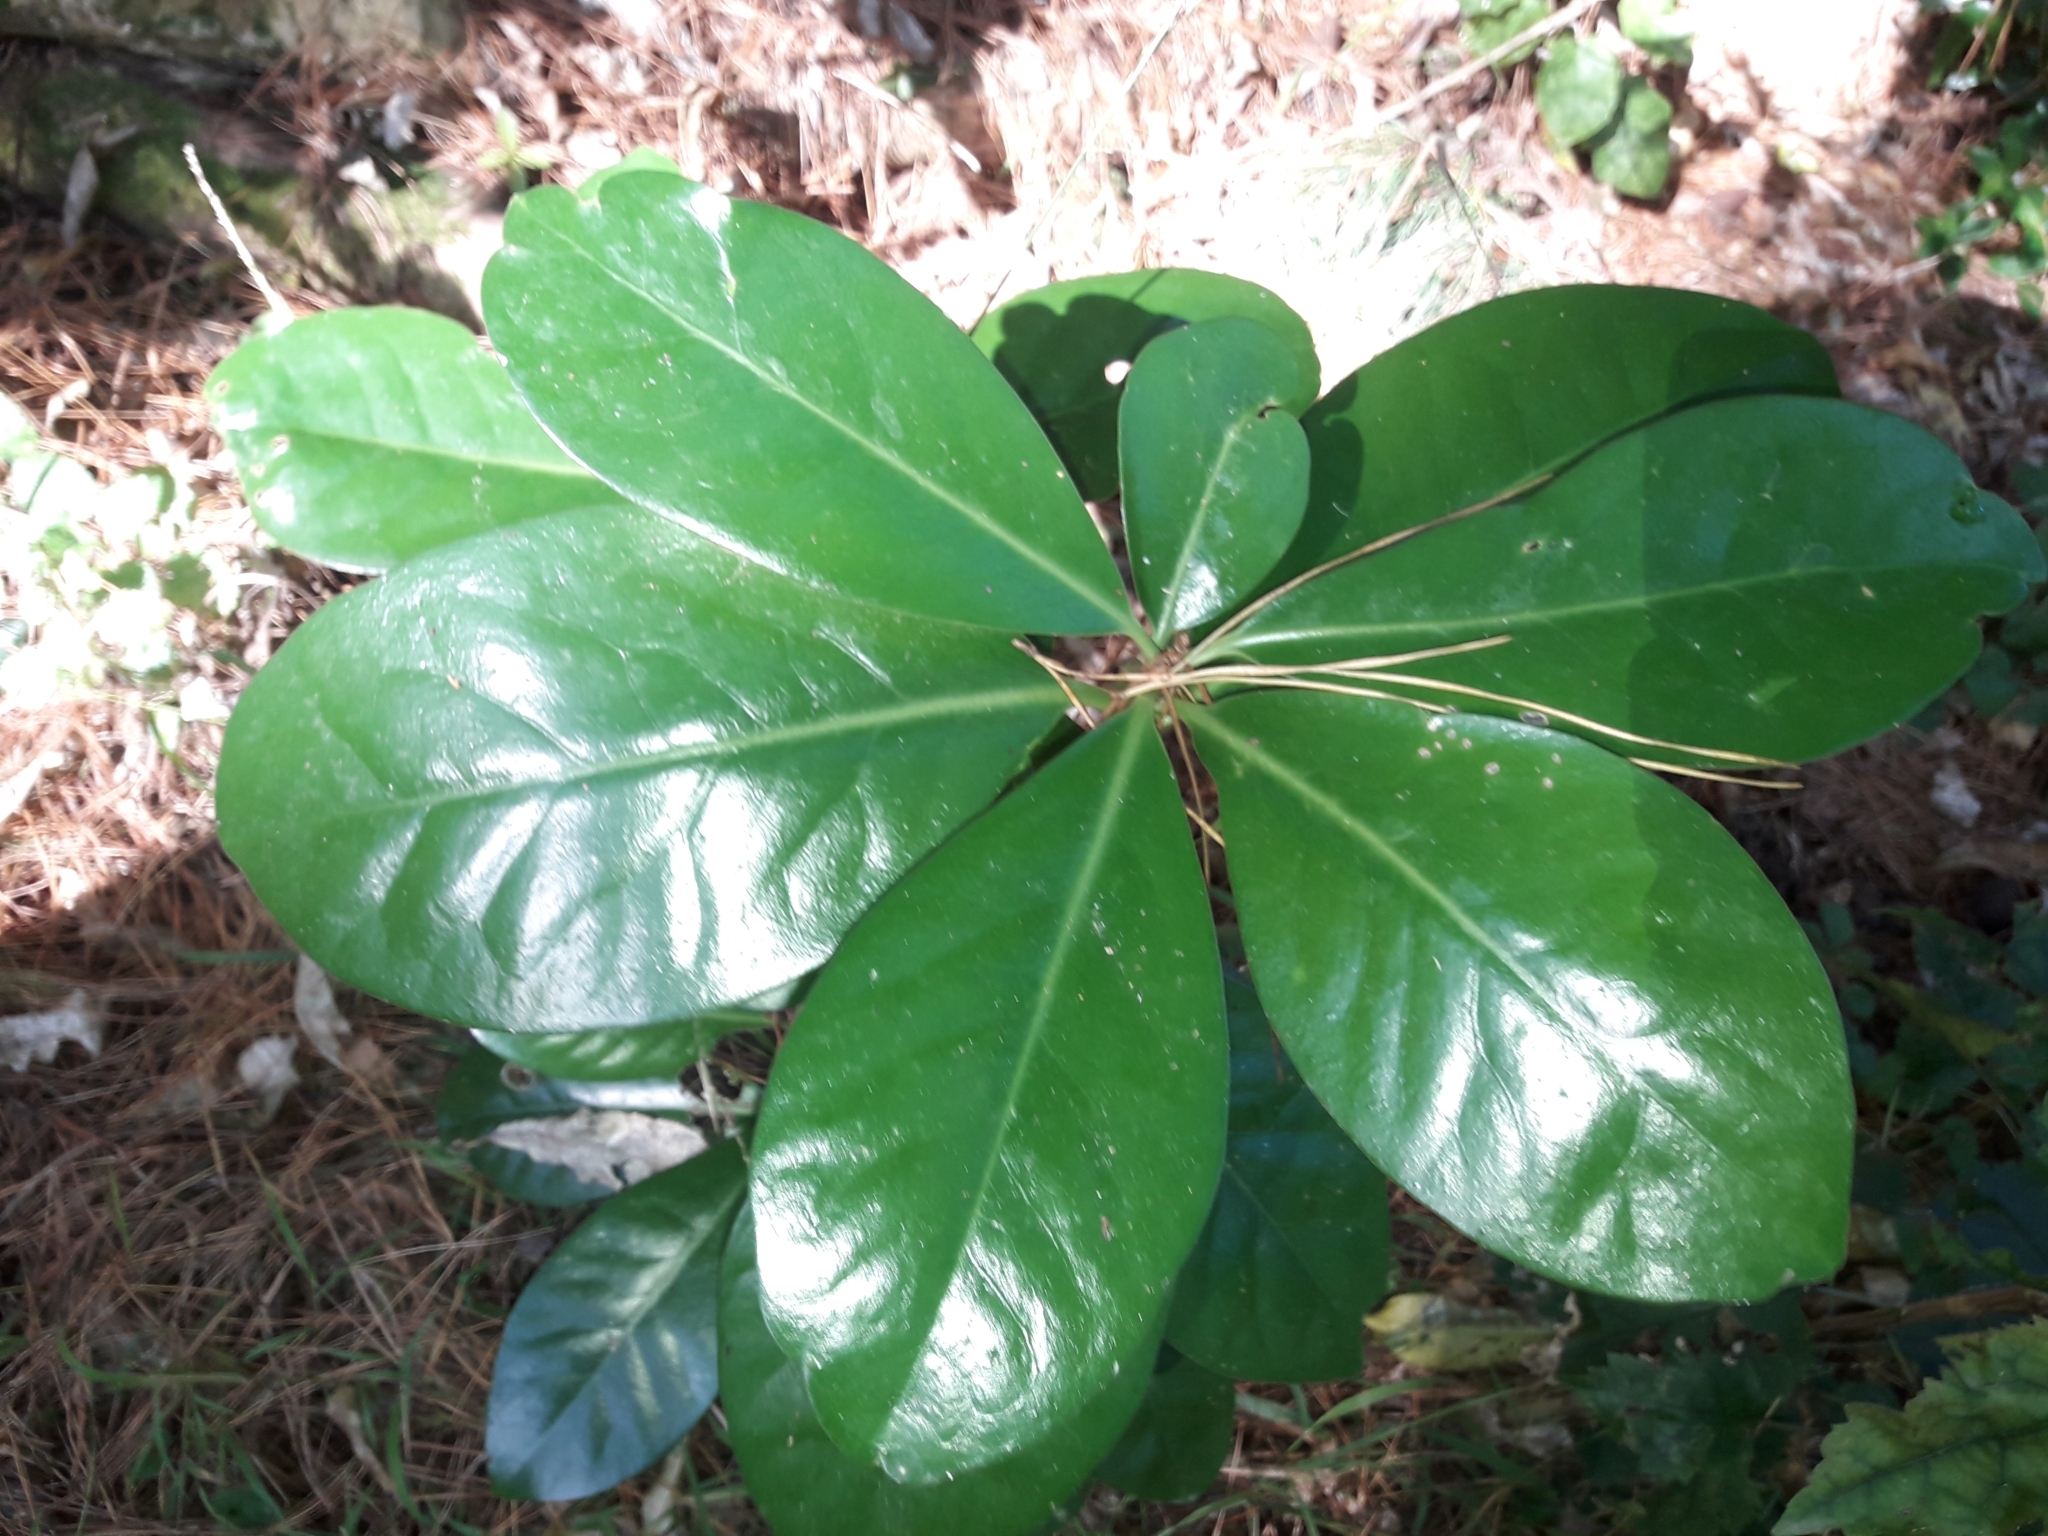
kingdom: Plantae
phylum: Tracheophyta
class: Magnoliopsida
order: Cucurbitales
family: Corynocarpaceae
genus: Corynocarpus
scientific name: Corynocarpus laevigatus
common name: New zealand laurel
